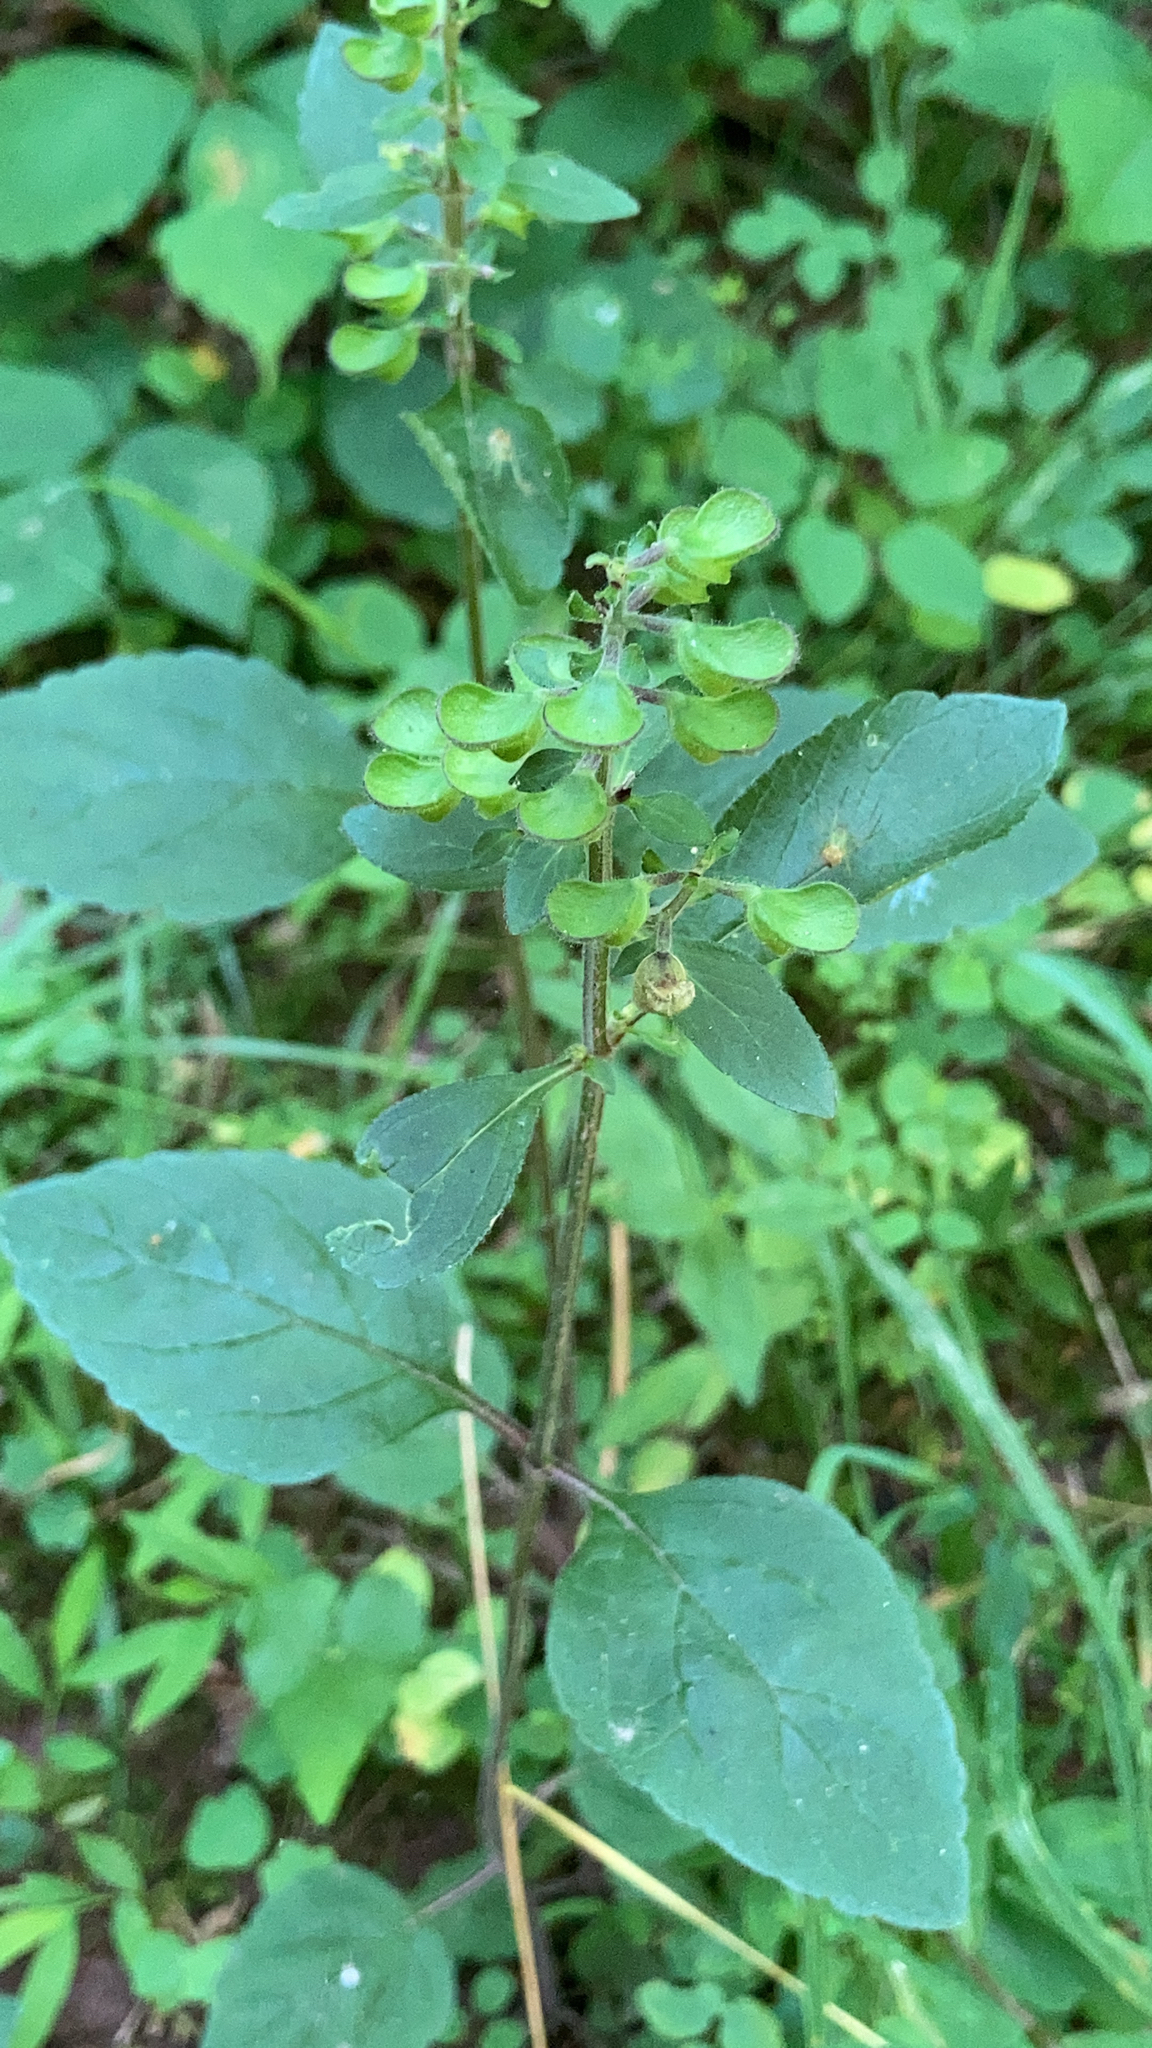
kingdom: Plantae
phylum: Tracheophyta
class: Magnoliopsida
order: Lamiales
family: Lamiaceae
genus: Scutellaria
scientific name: Scutellaria elliptica
